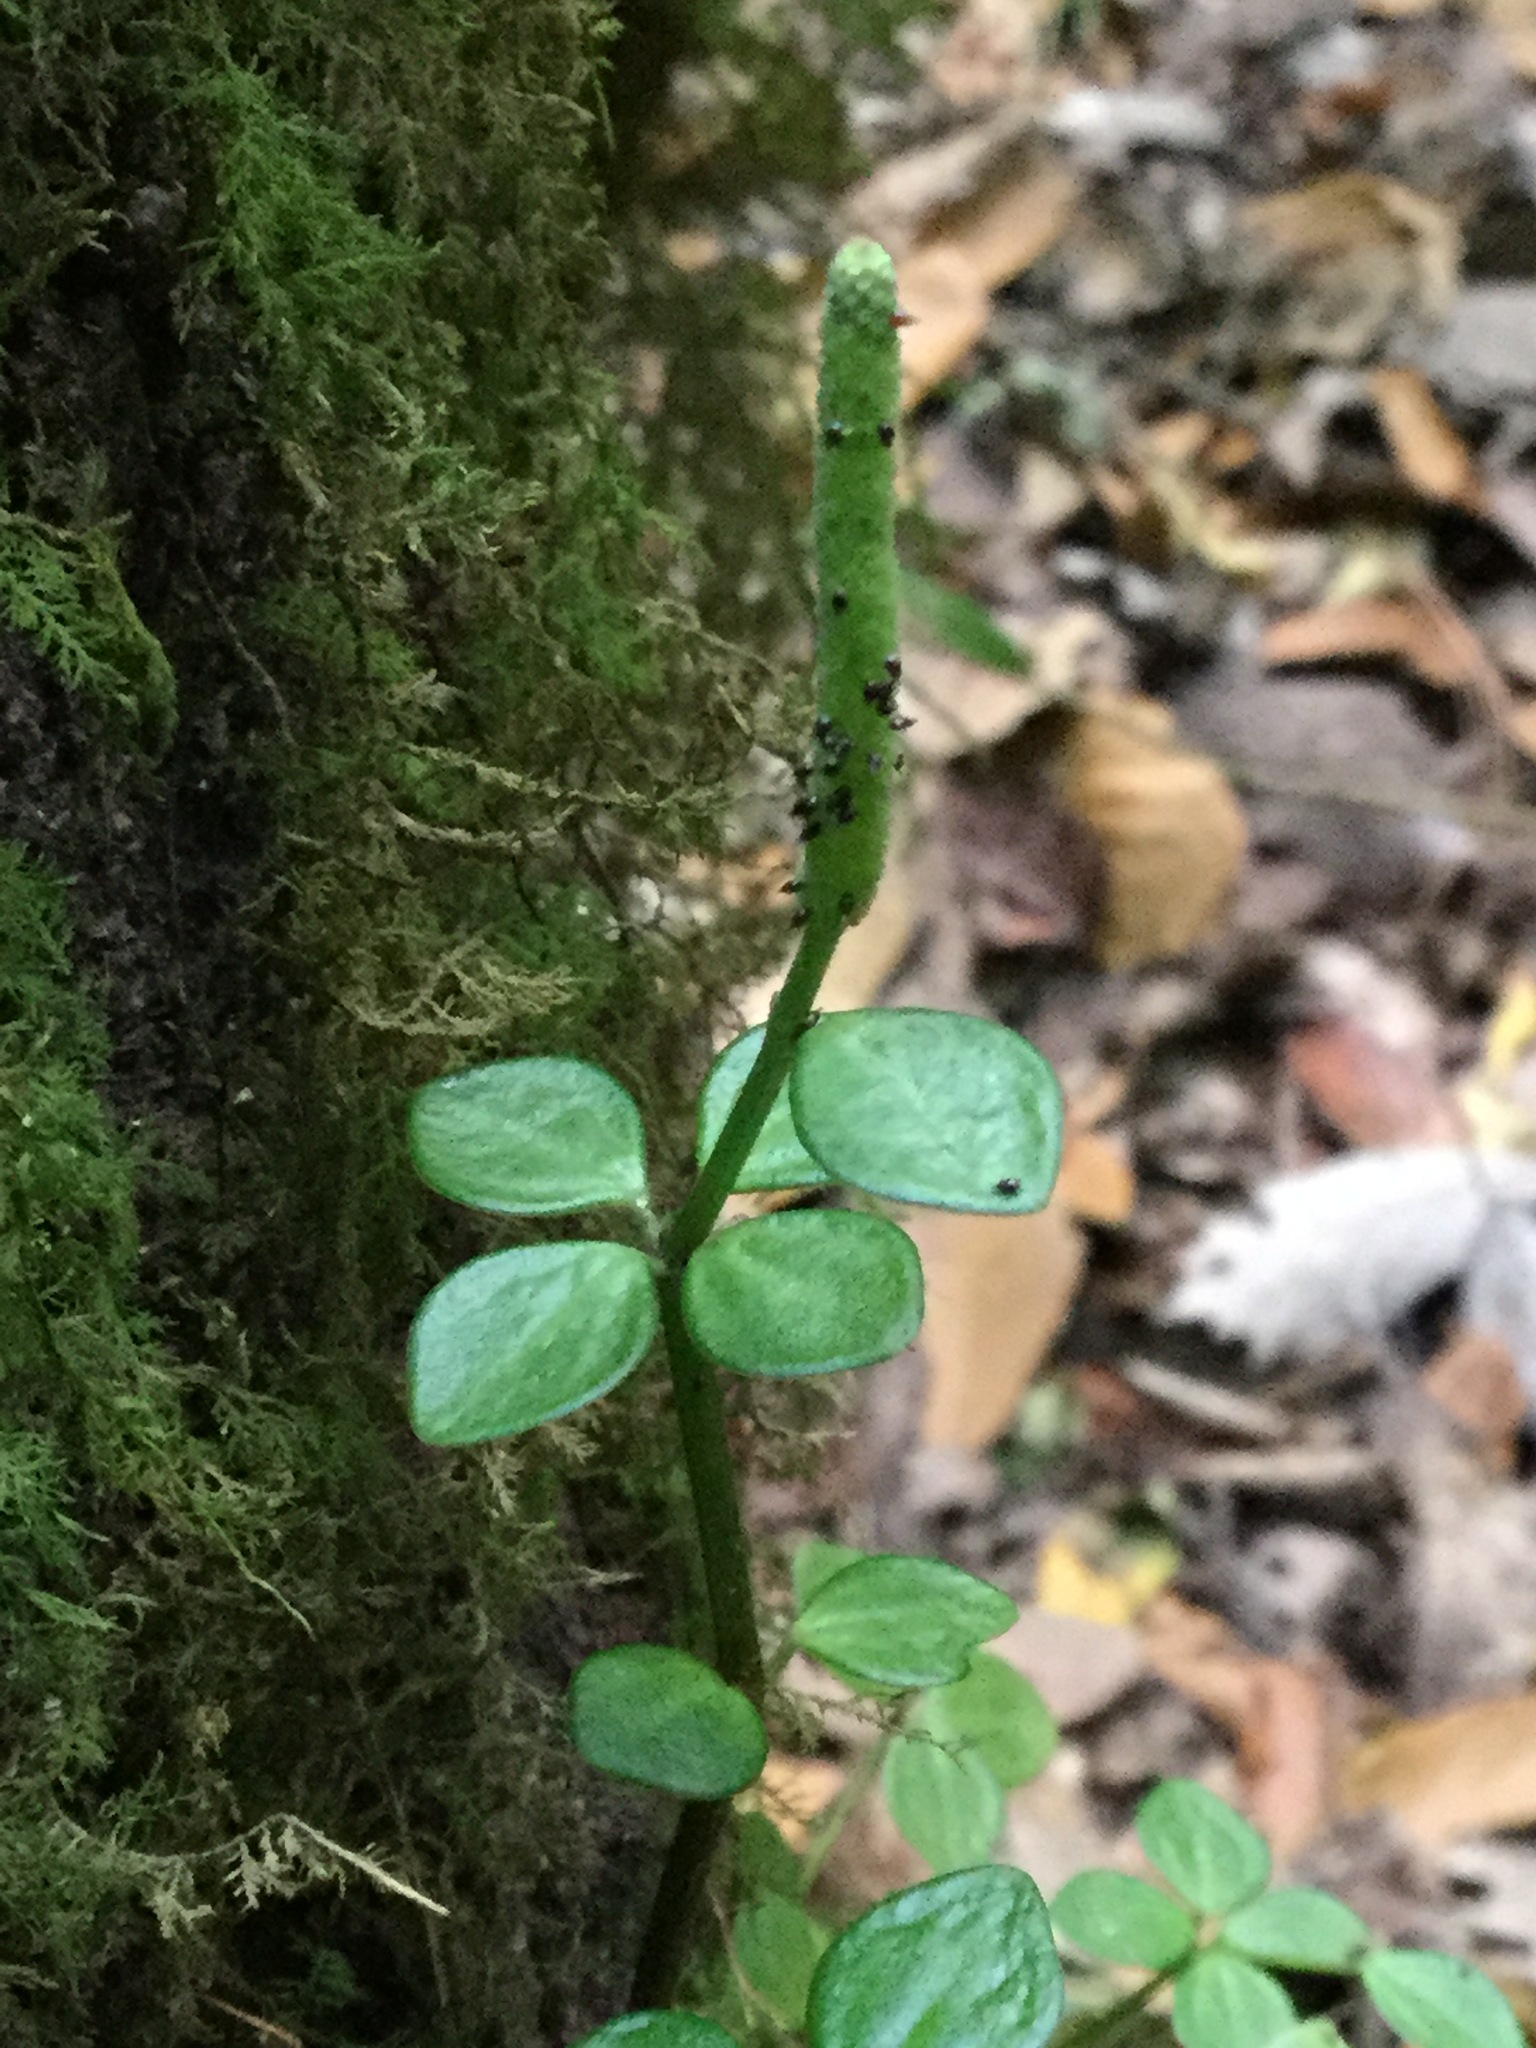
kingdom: Plantae
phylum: Tracheophyta
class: Magnoliopsida
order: Piperales
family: Piperaceae
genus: Peperomia
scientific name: Peperomia tetraphylla
